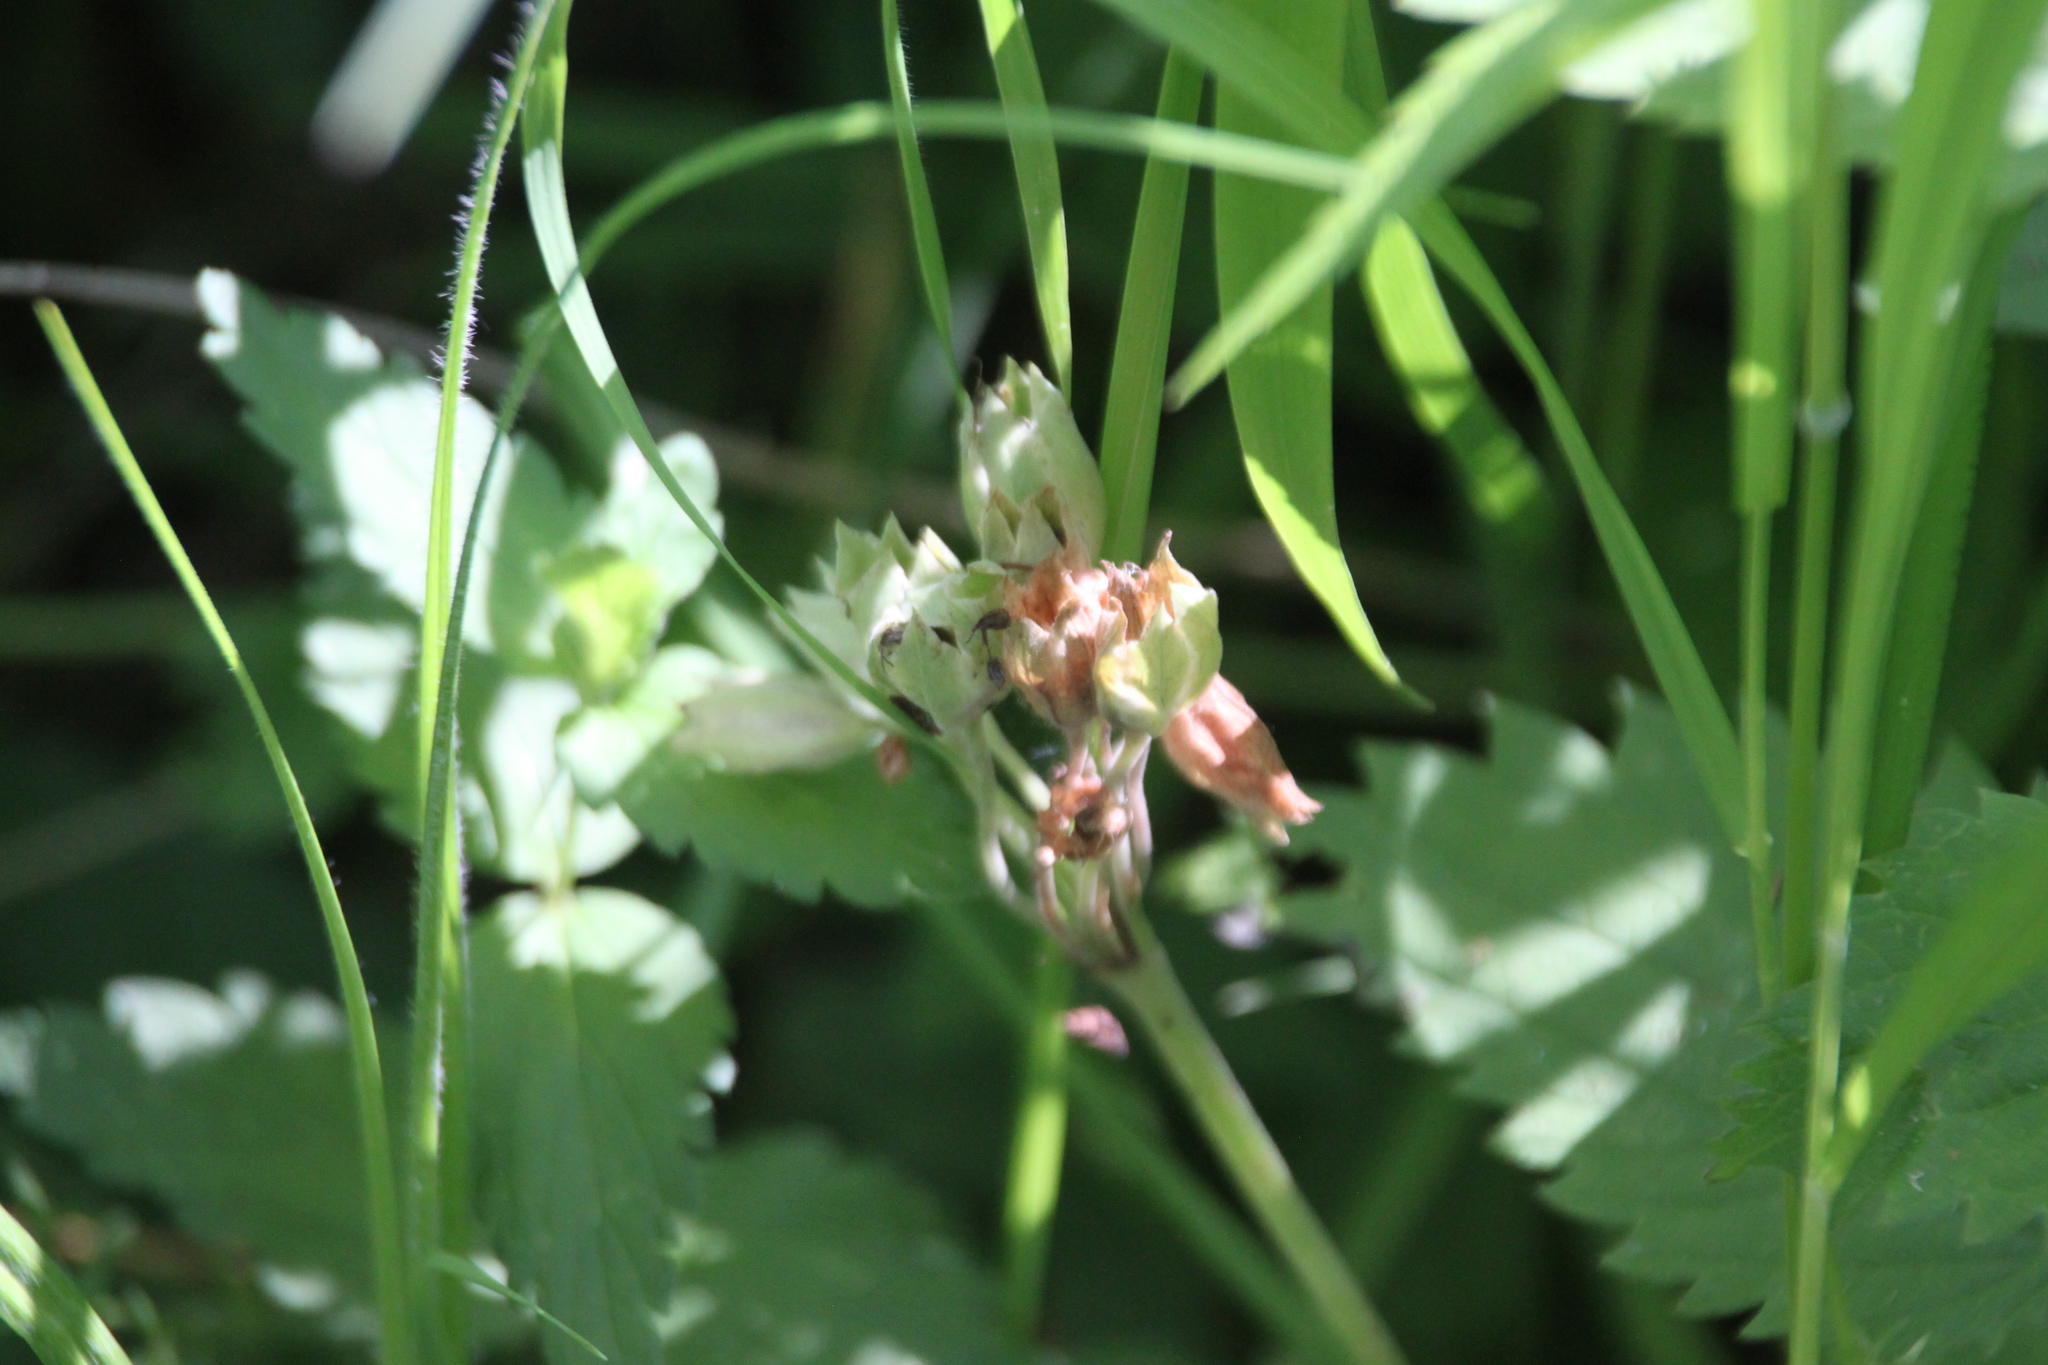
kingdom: Plantae
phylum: Tracheophyta
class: Magnoliopsida
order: Ericales
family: Primulaceae
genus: Primula
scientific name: Primula veris
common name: Cowslip
